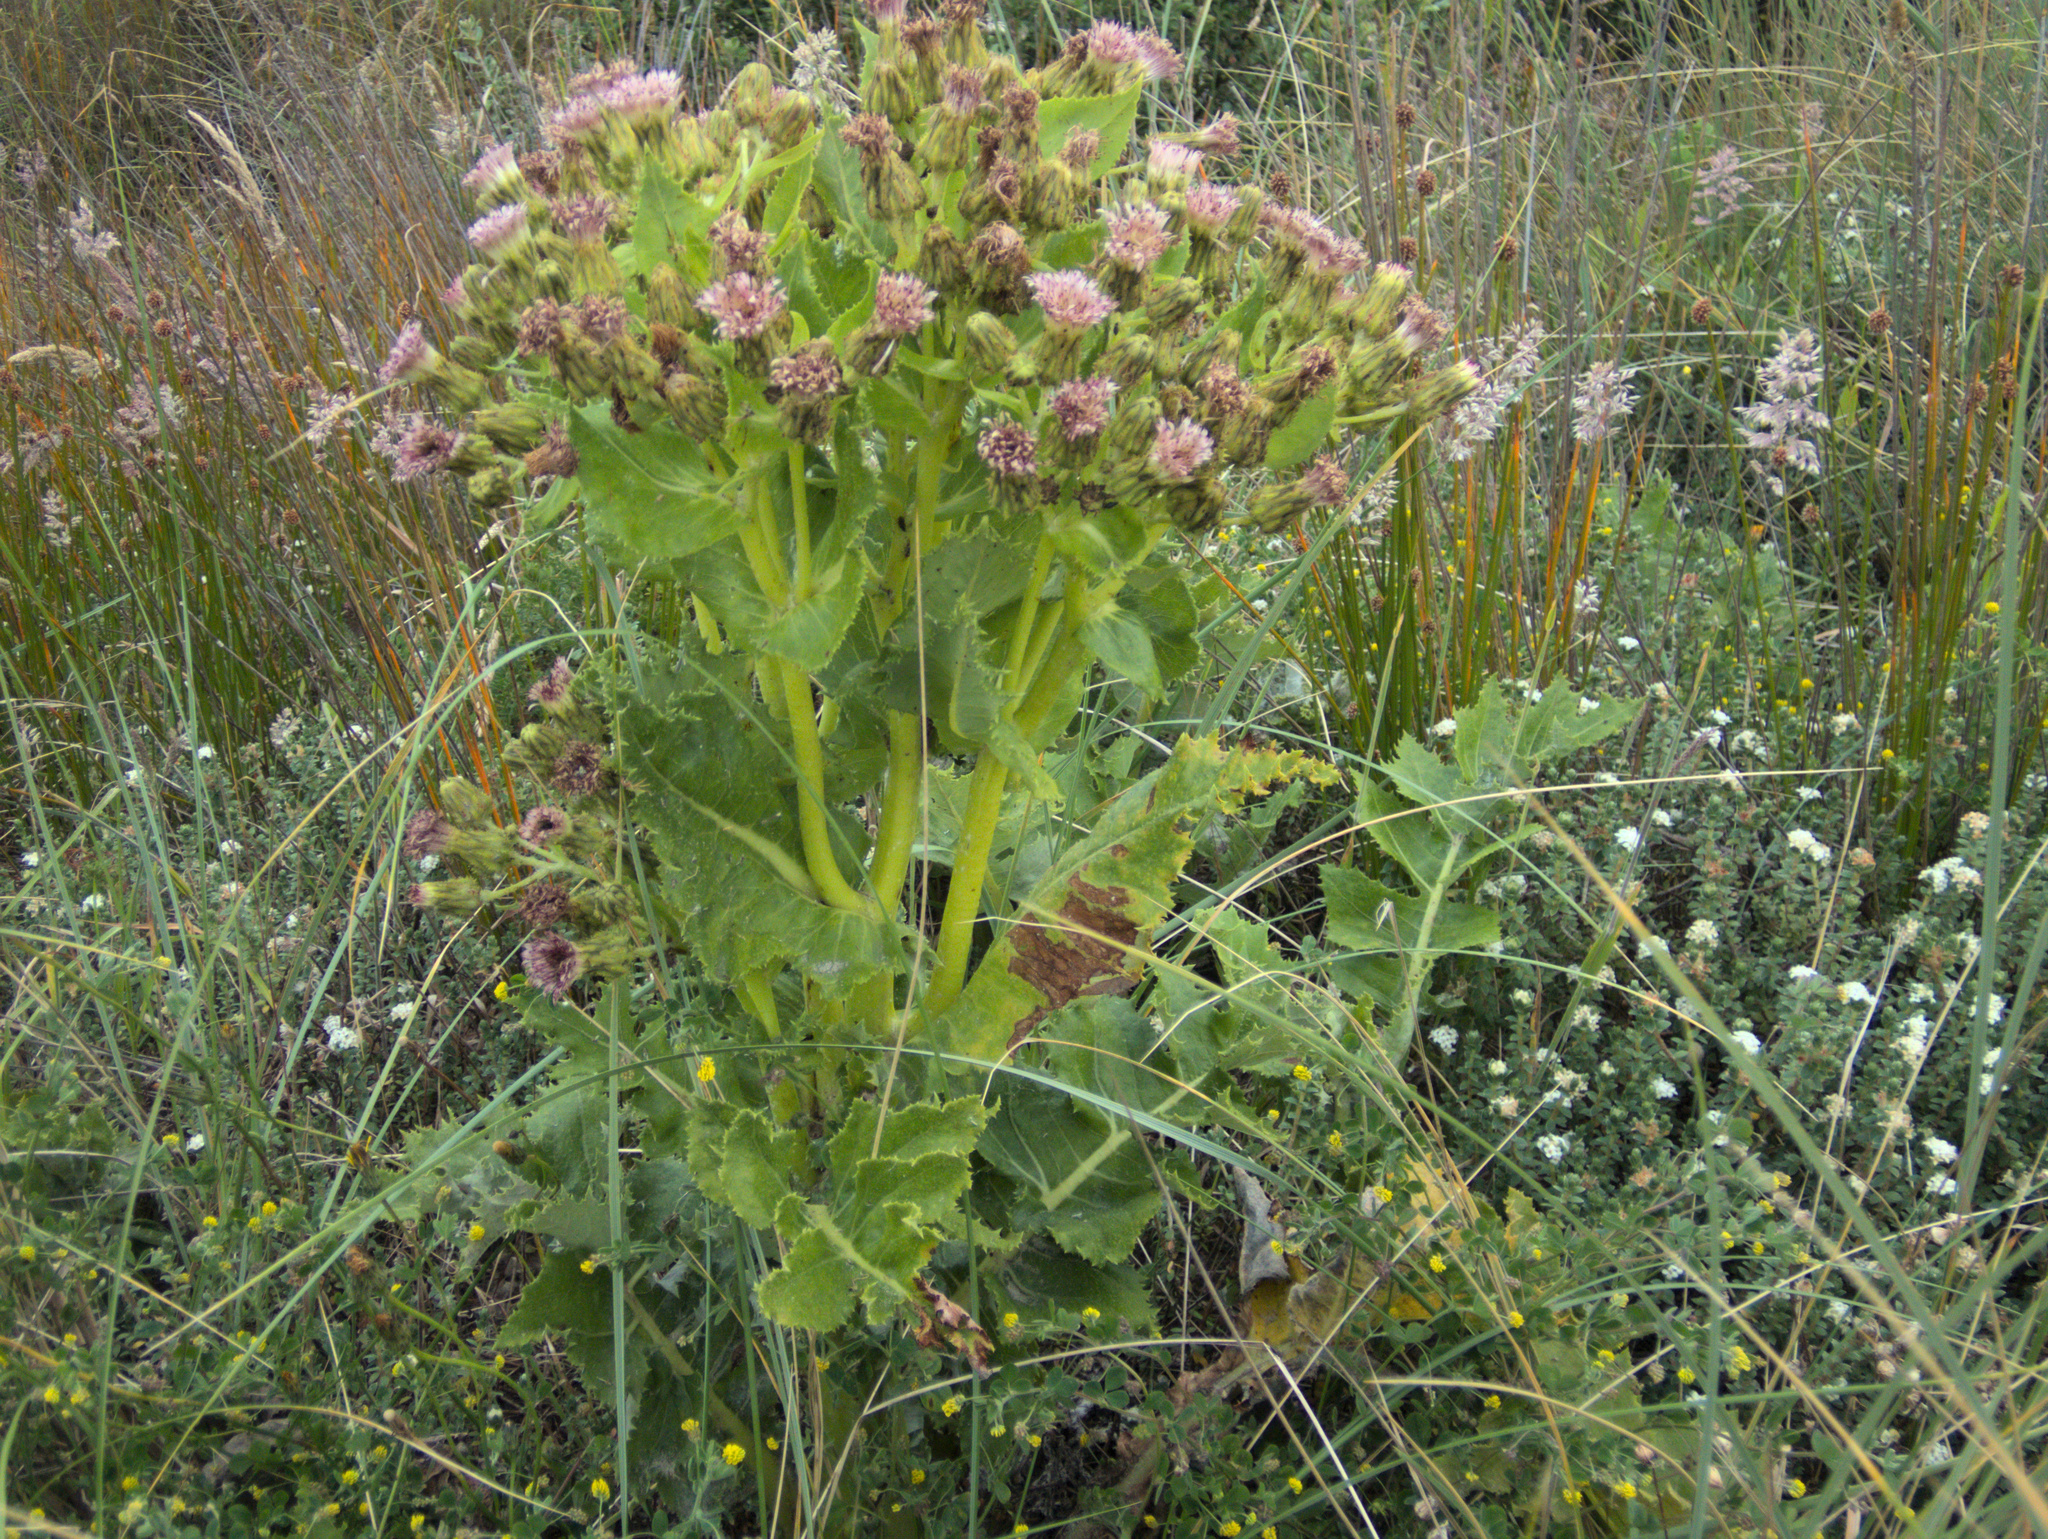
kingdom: Plantae
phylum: Tracheophyta
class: Magnoliopsida
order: Asterales
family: Asteraceae
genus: Sonchus
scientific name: Sonchus grandifolius
